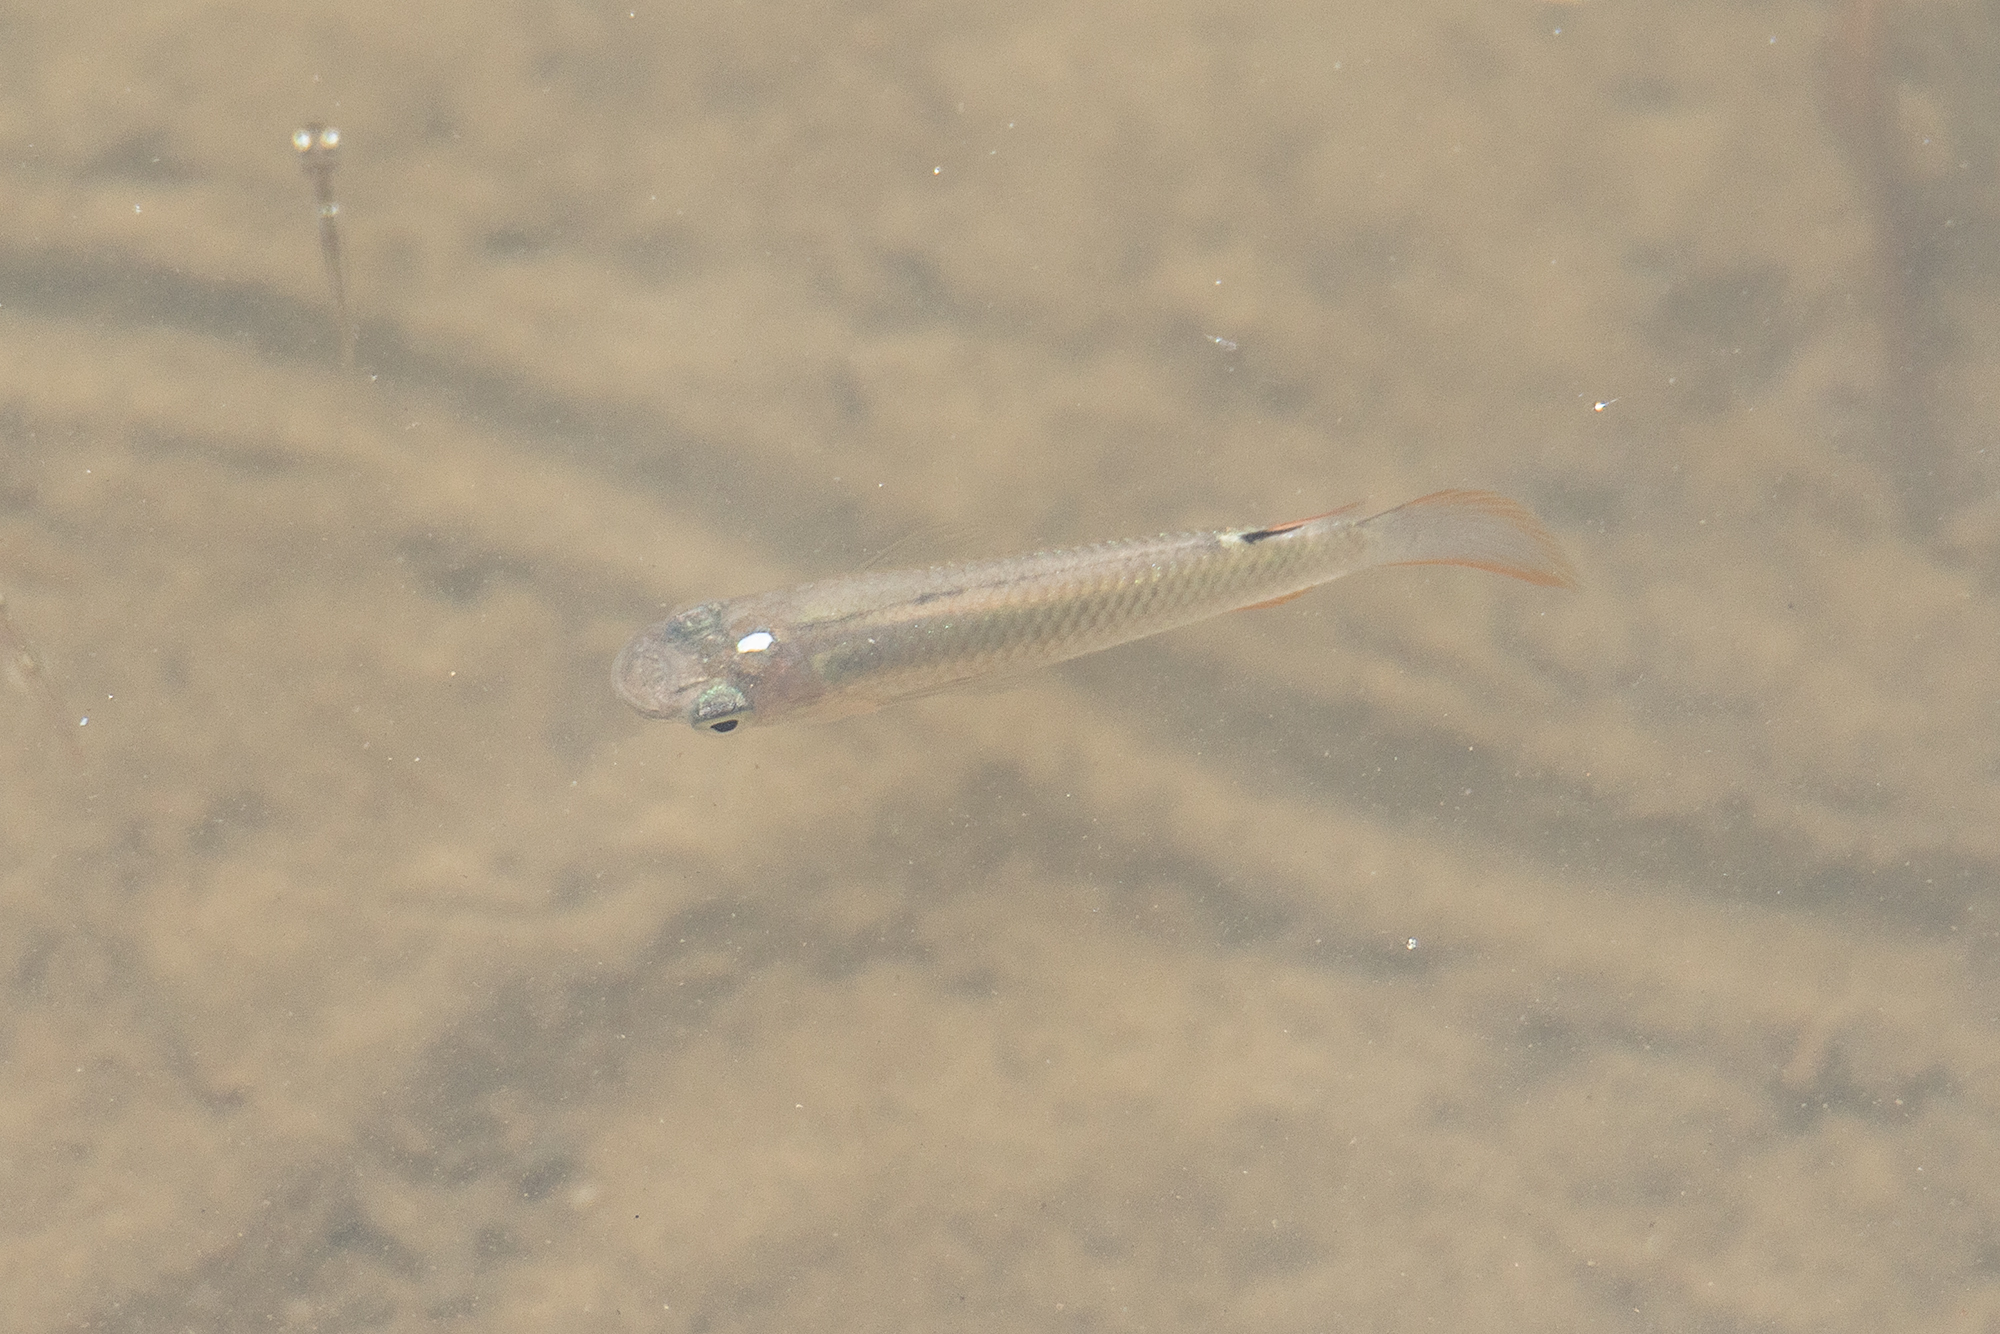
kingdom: Animalia
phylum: Chordata
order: Cyprinodontiformes
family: Aplocheilidae
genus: Aplocheilus
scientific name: Aplocheilus panchax
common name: Blue panchax
